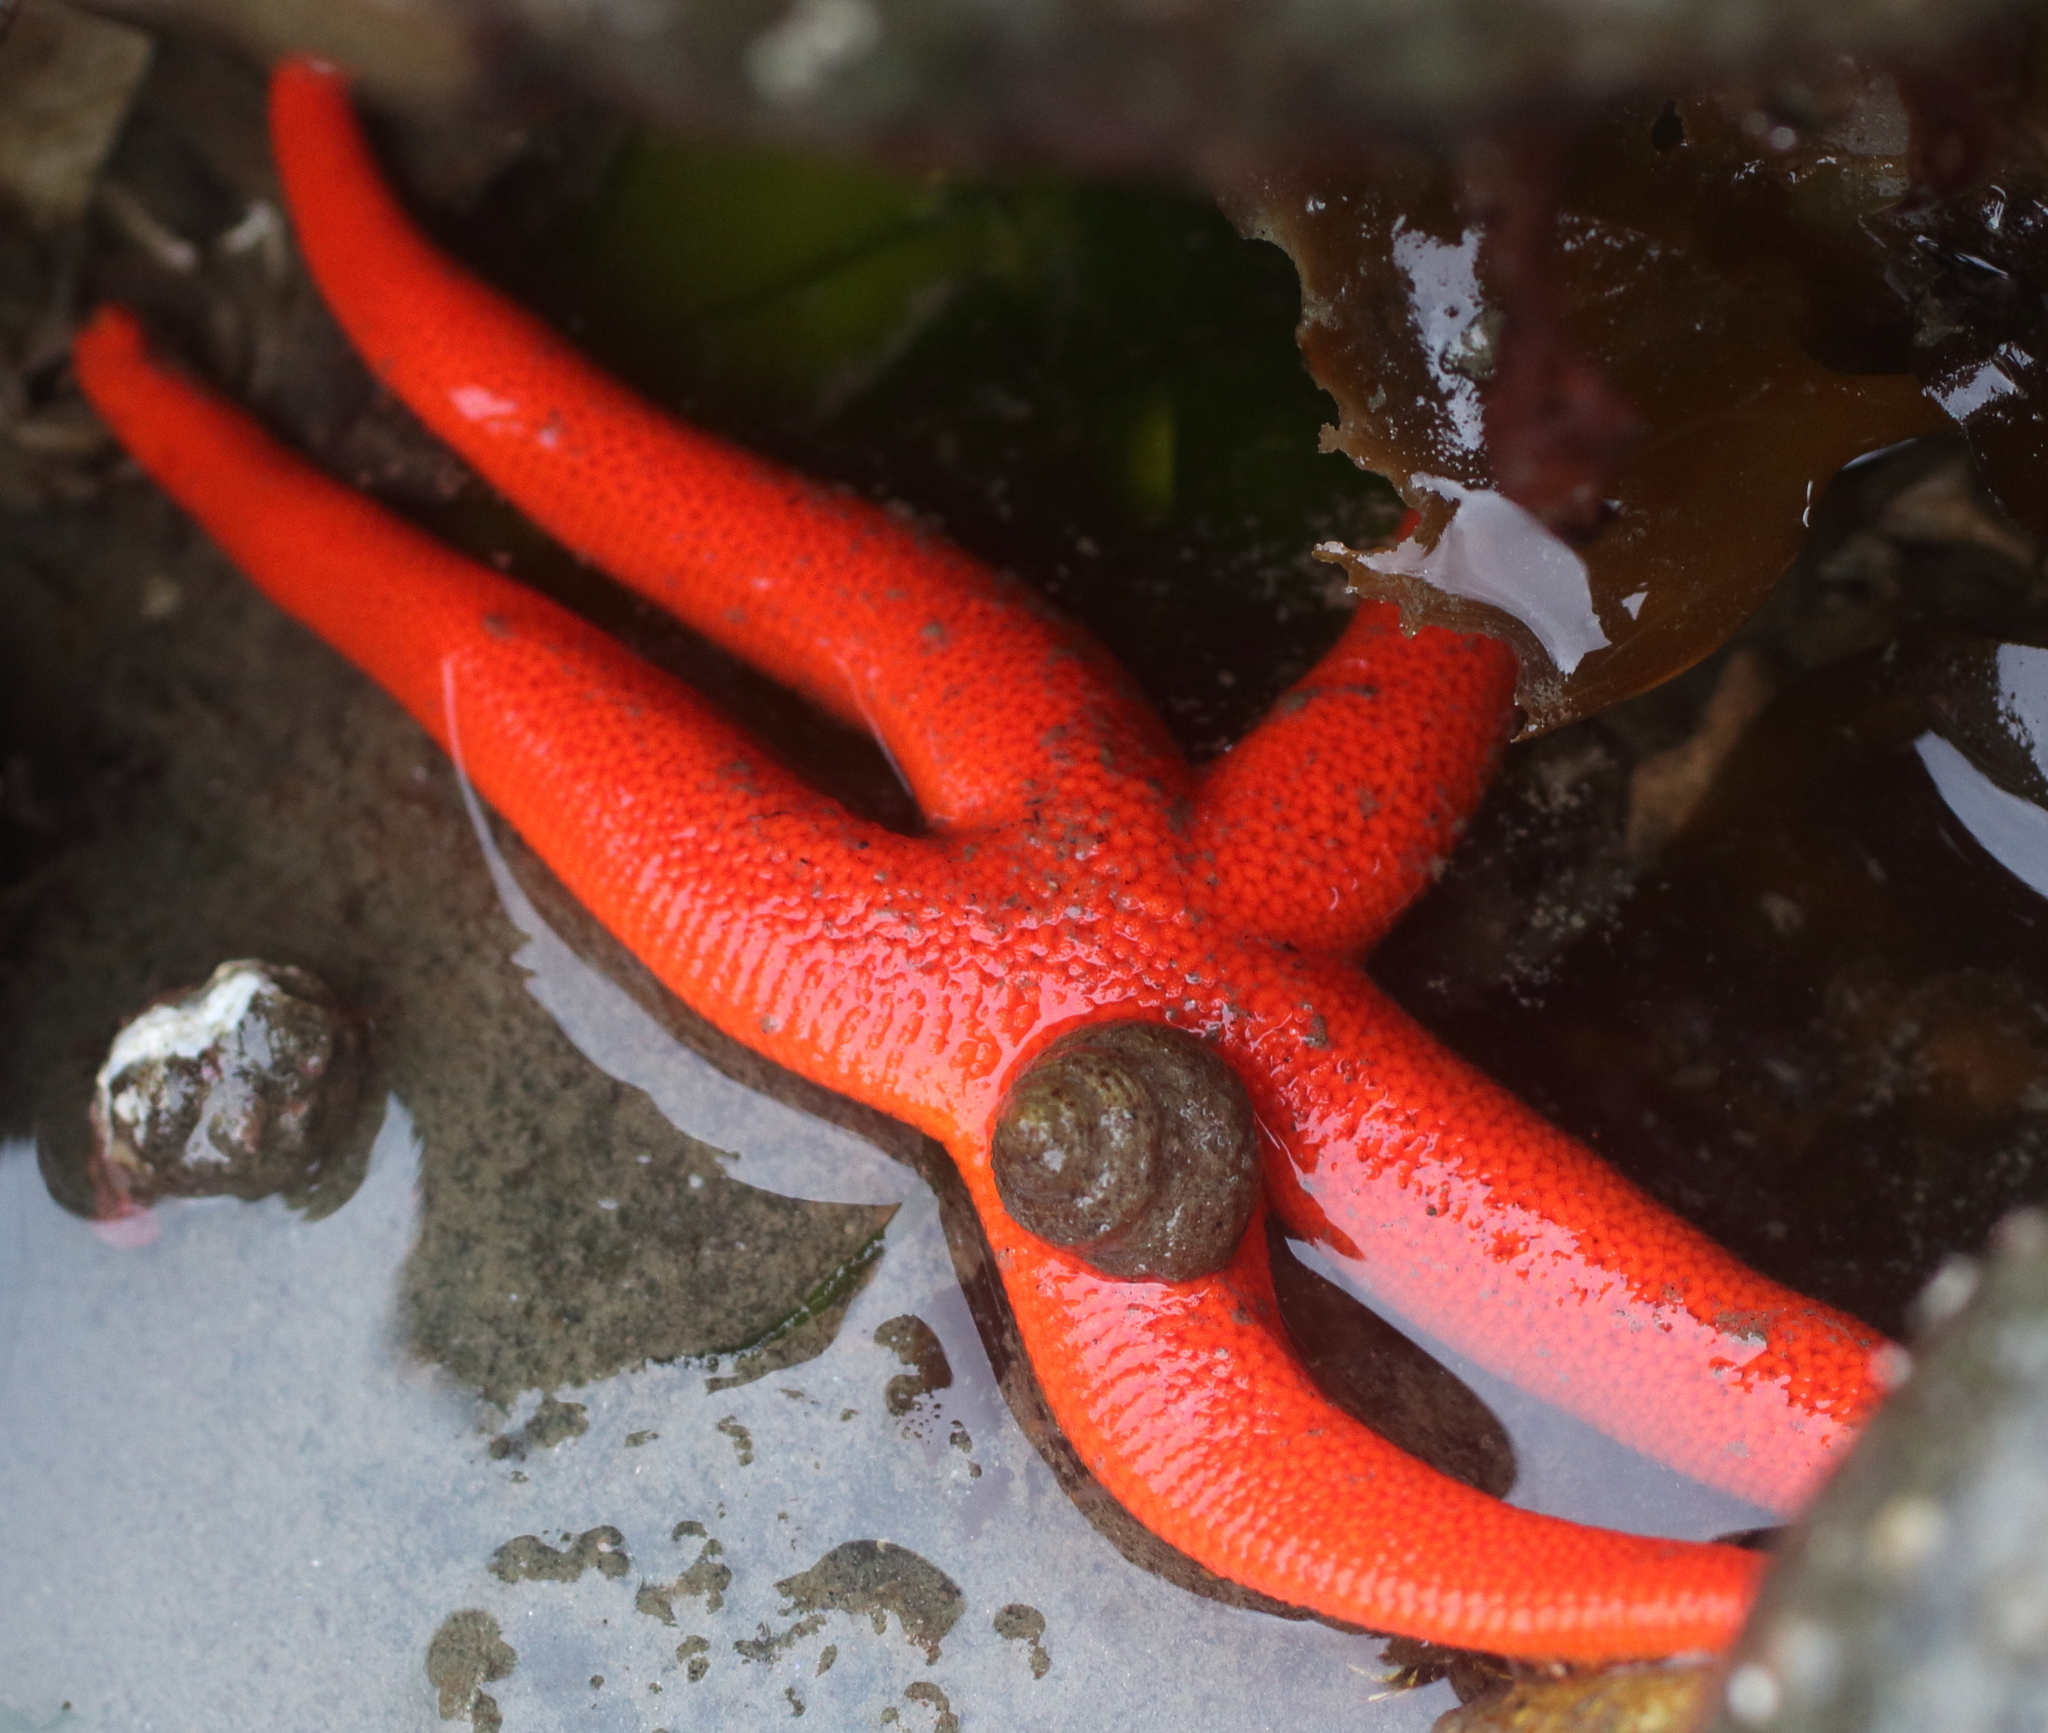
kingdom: Animalia
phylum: Echinodermata
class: Asteroidea
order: Spinulosida
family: Echinasteridae
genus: Henricia
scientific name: Henricia leviuscula
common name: Pacific blood star
